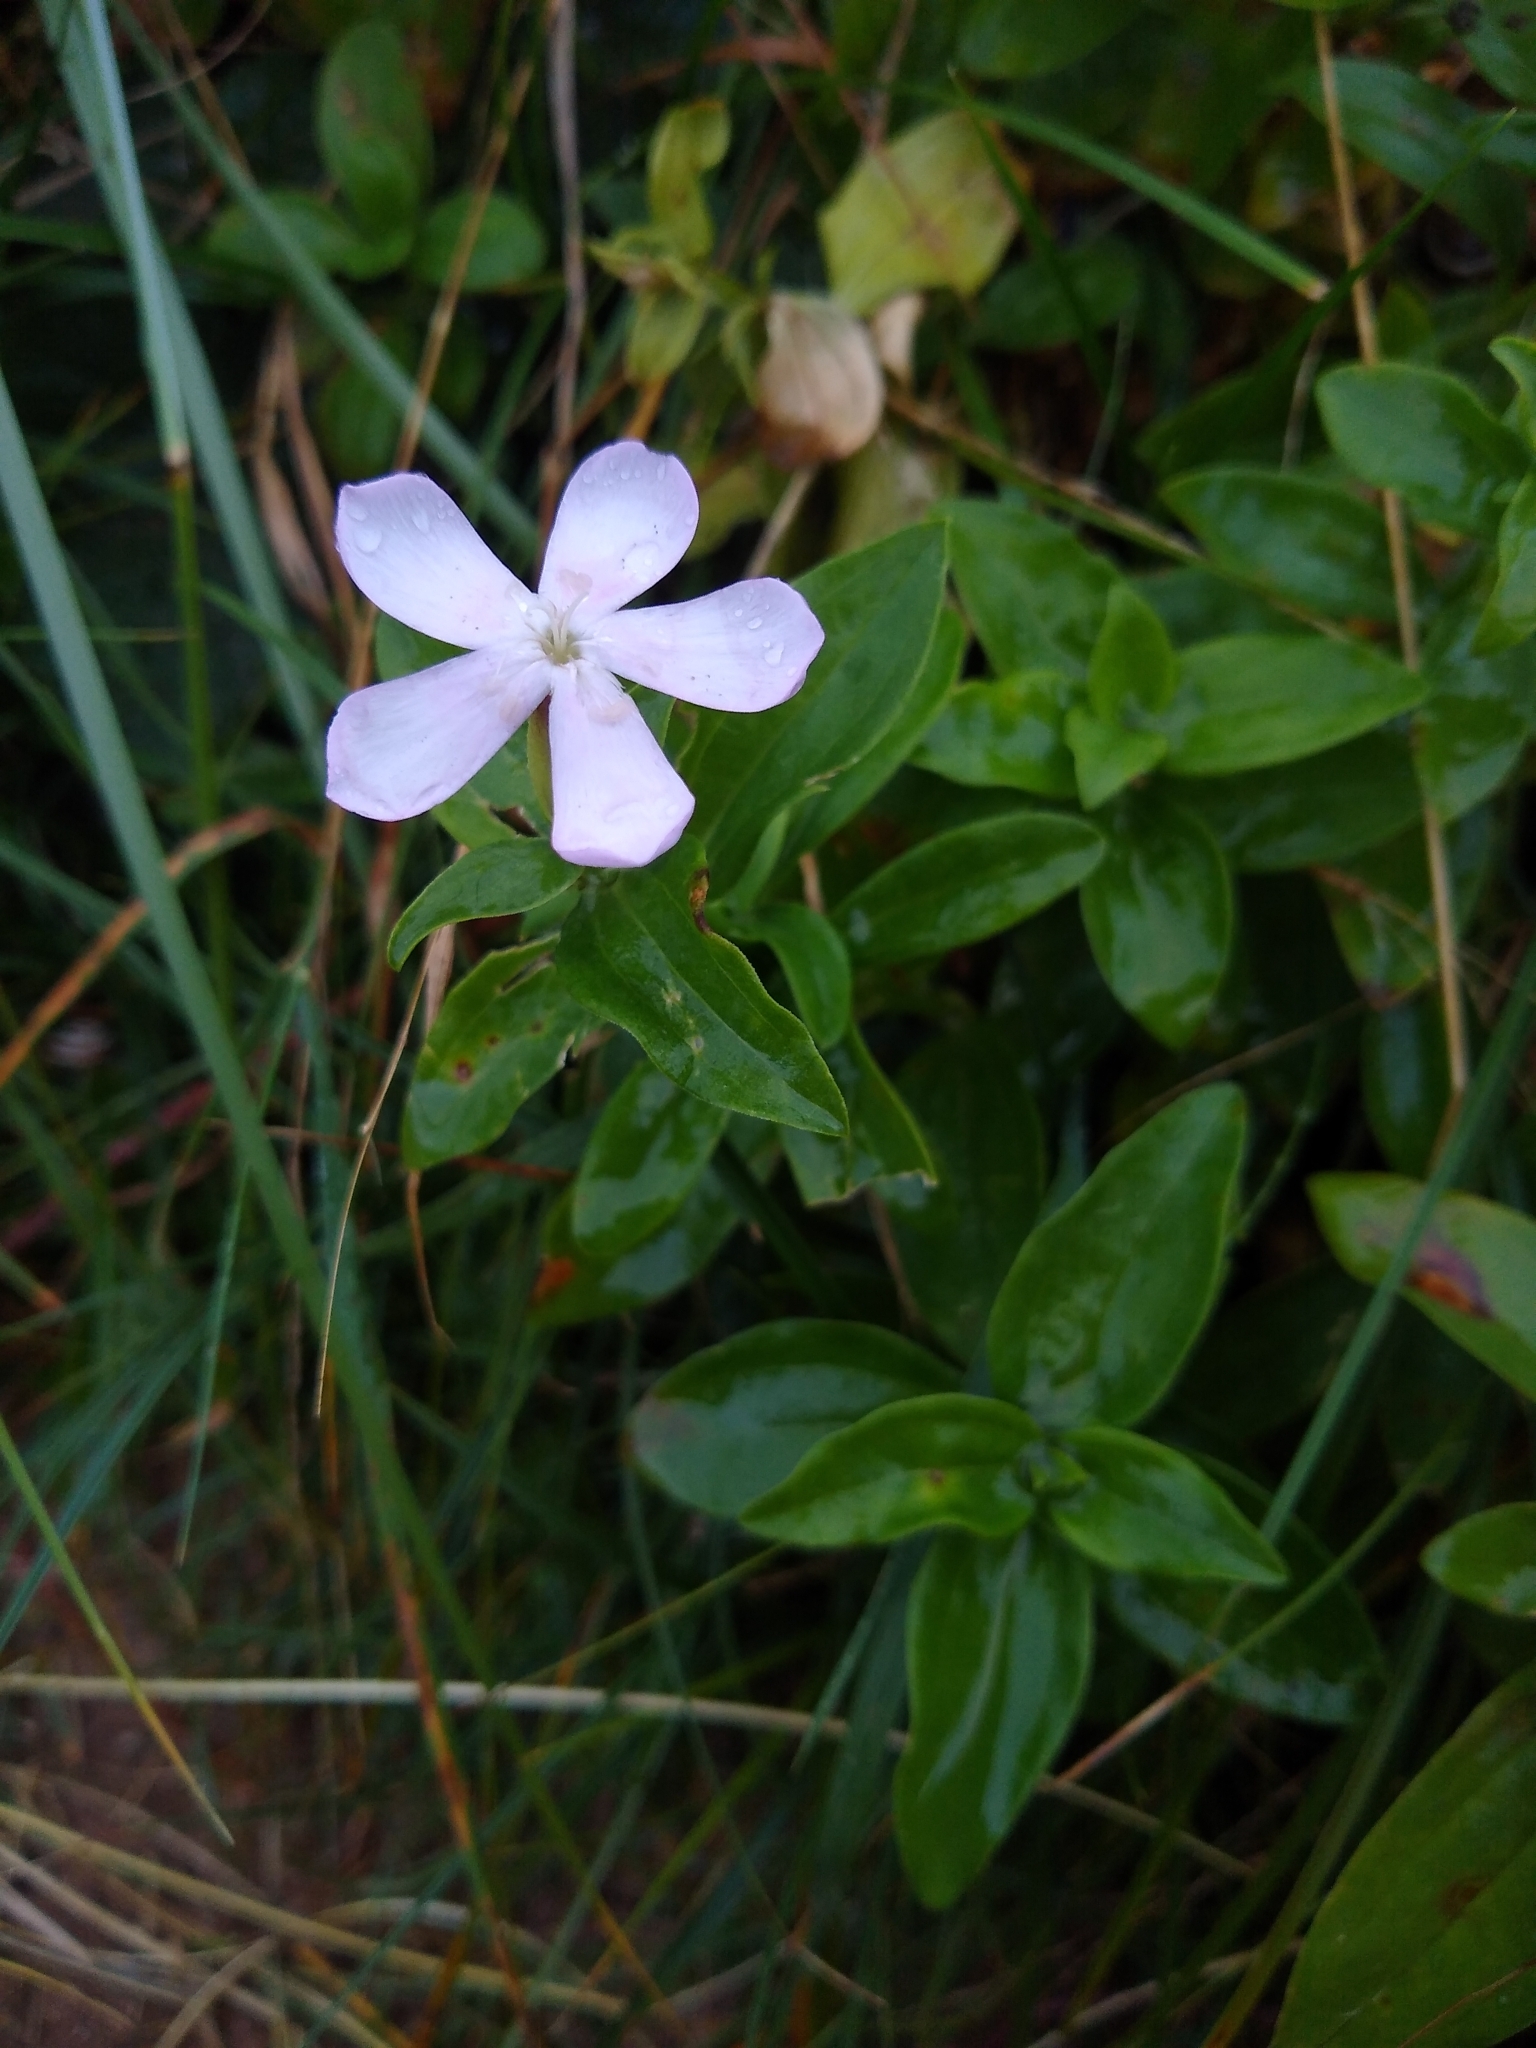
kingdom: Plantae
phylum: Tracheophyta
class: Magnoliopsida
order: Caryophyllales
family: Caryophyllaceae
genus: Saponaria
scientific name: Saponaria officinalis
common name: Soapwort
